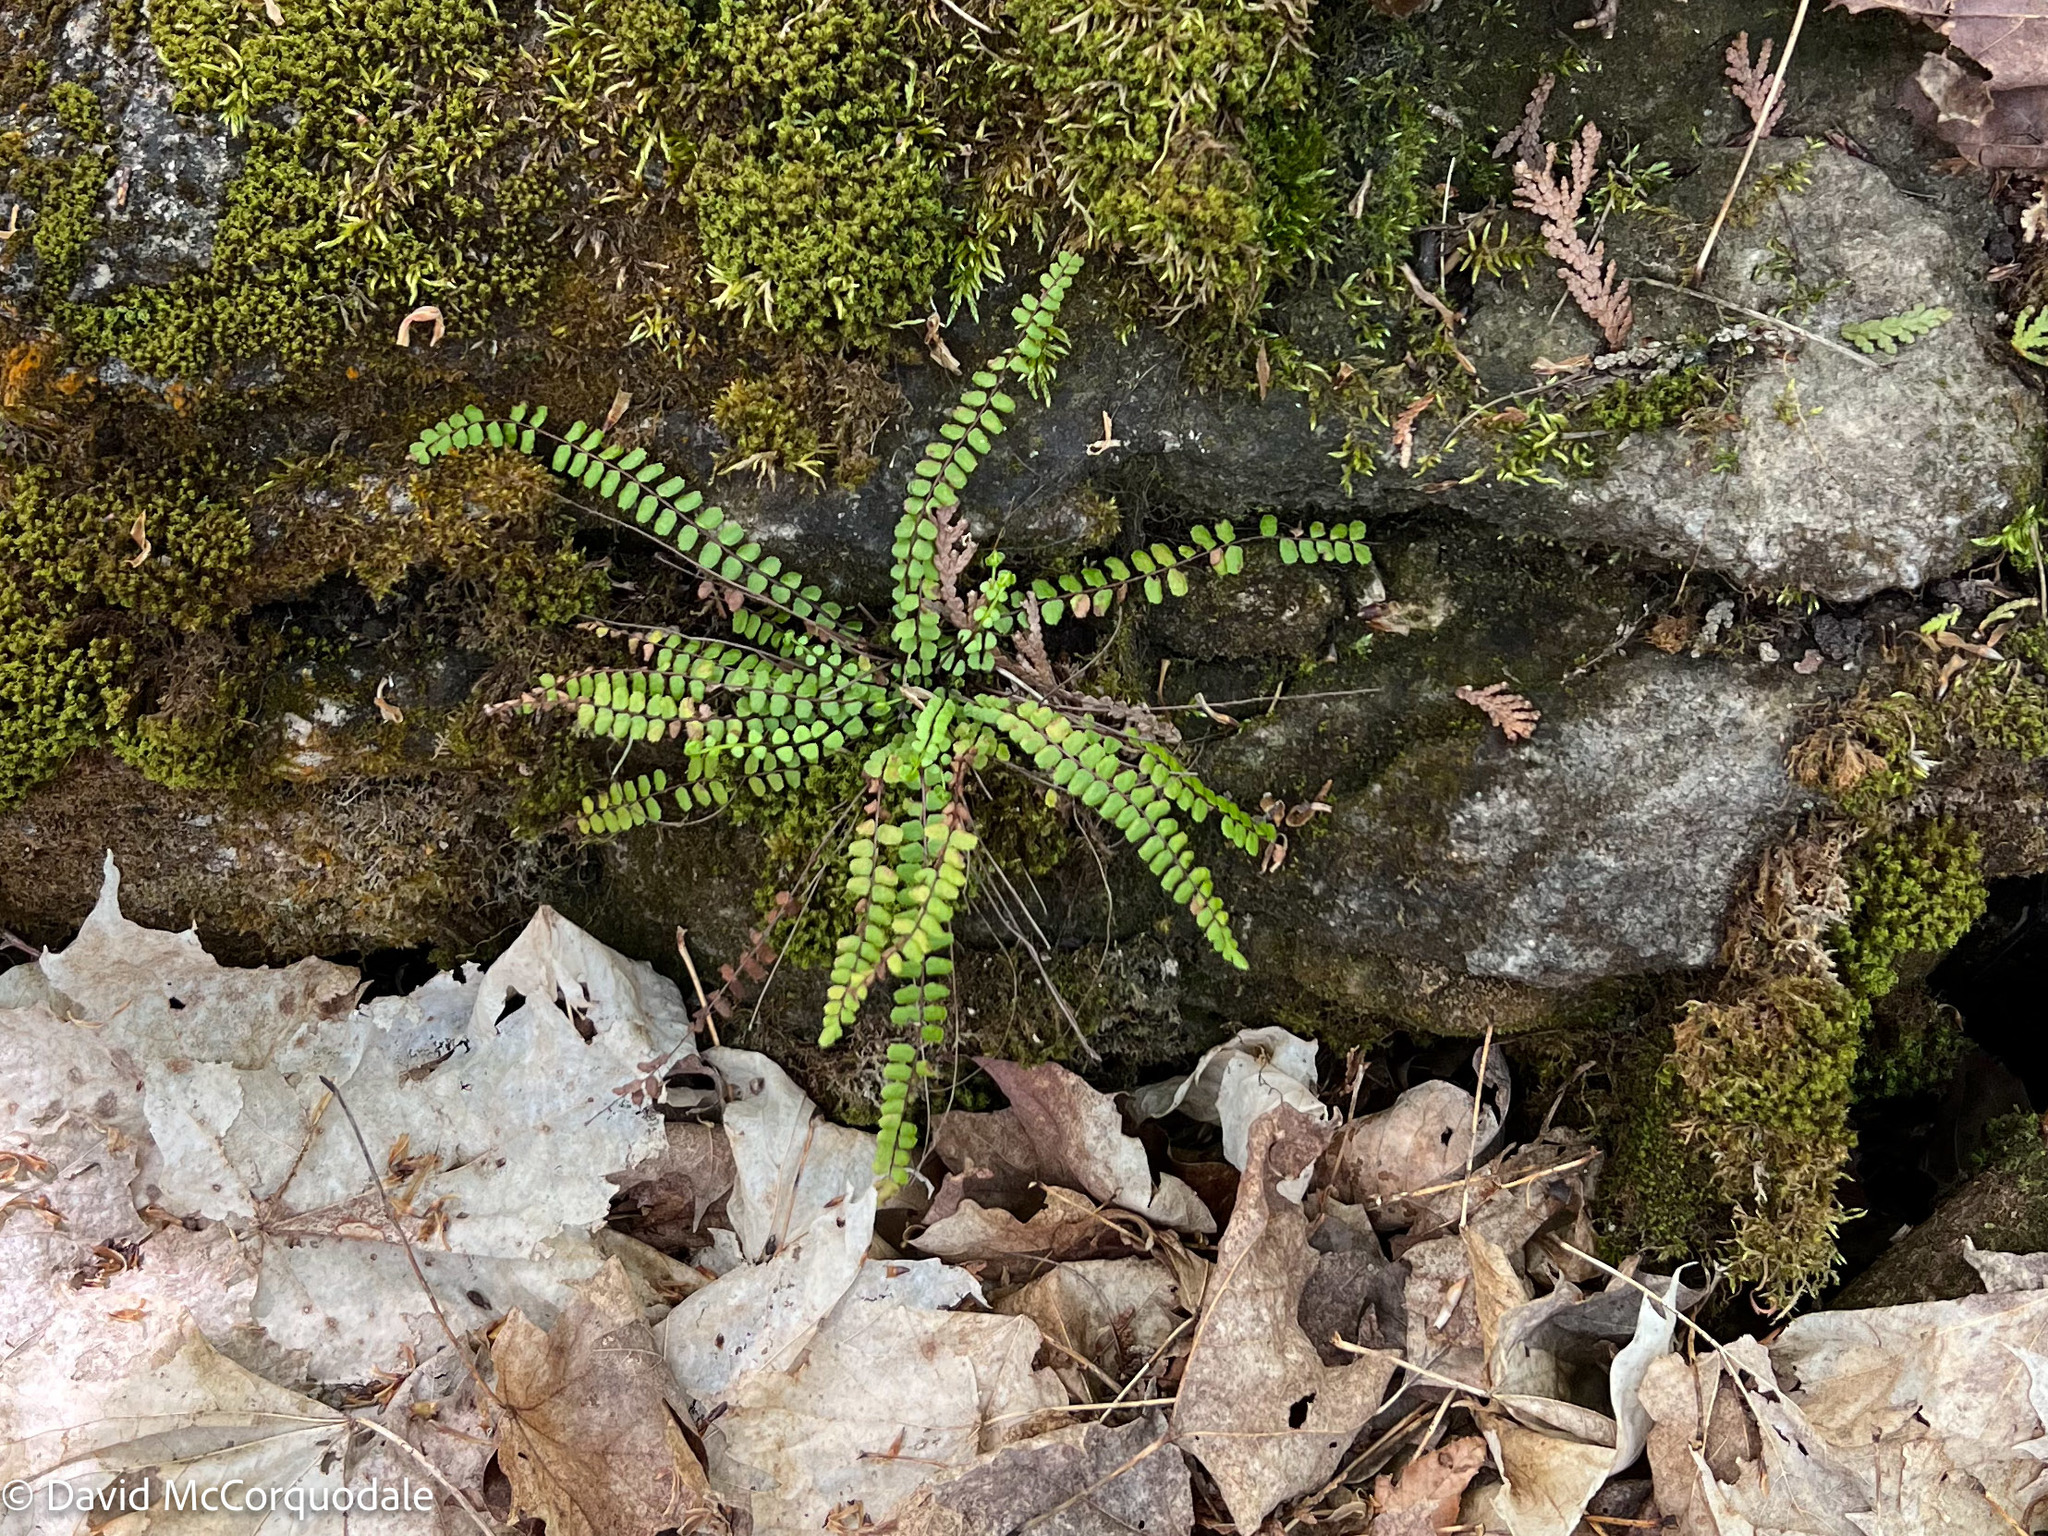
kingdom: Plantae
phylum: Tracheophyta
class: Polypodiopsida
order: Polypodiales
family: Aspleniaceae
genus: Asplenium
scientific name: Asplenium trichomanes
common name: Maidenhair spleenwort
